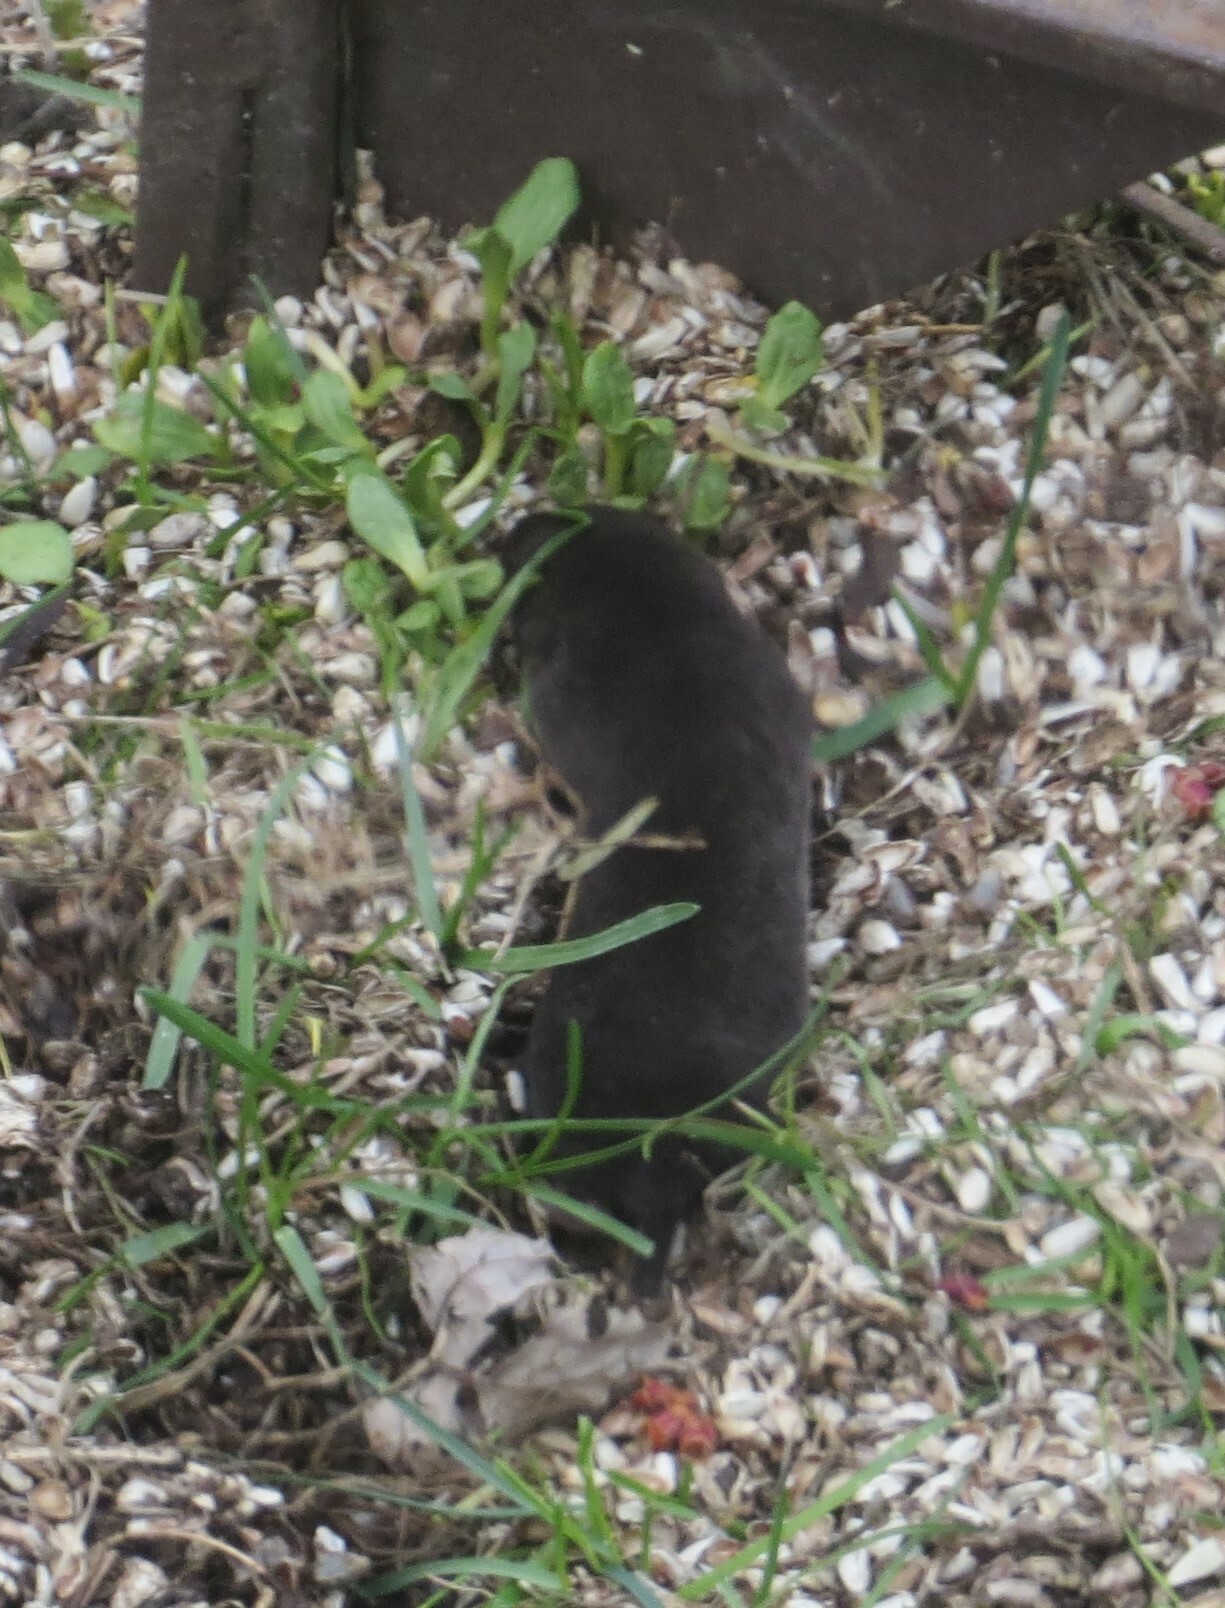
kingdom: Animalia
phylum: Chordata
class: Mammalia
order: Soricomorpha
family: Soricidae
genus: Blarina
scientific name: Blarina brevicauda
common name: Northern short-tailed shrew
